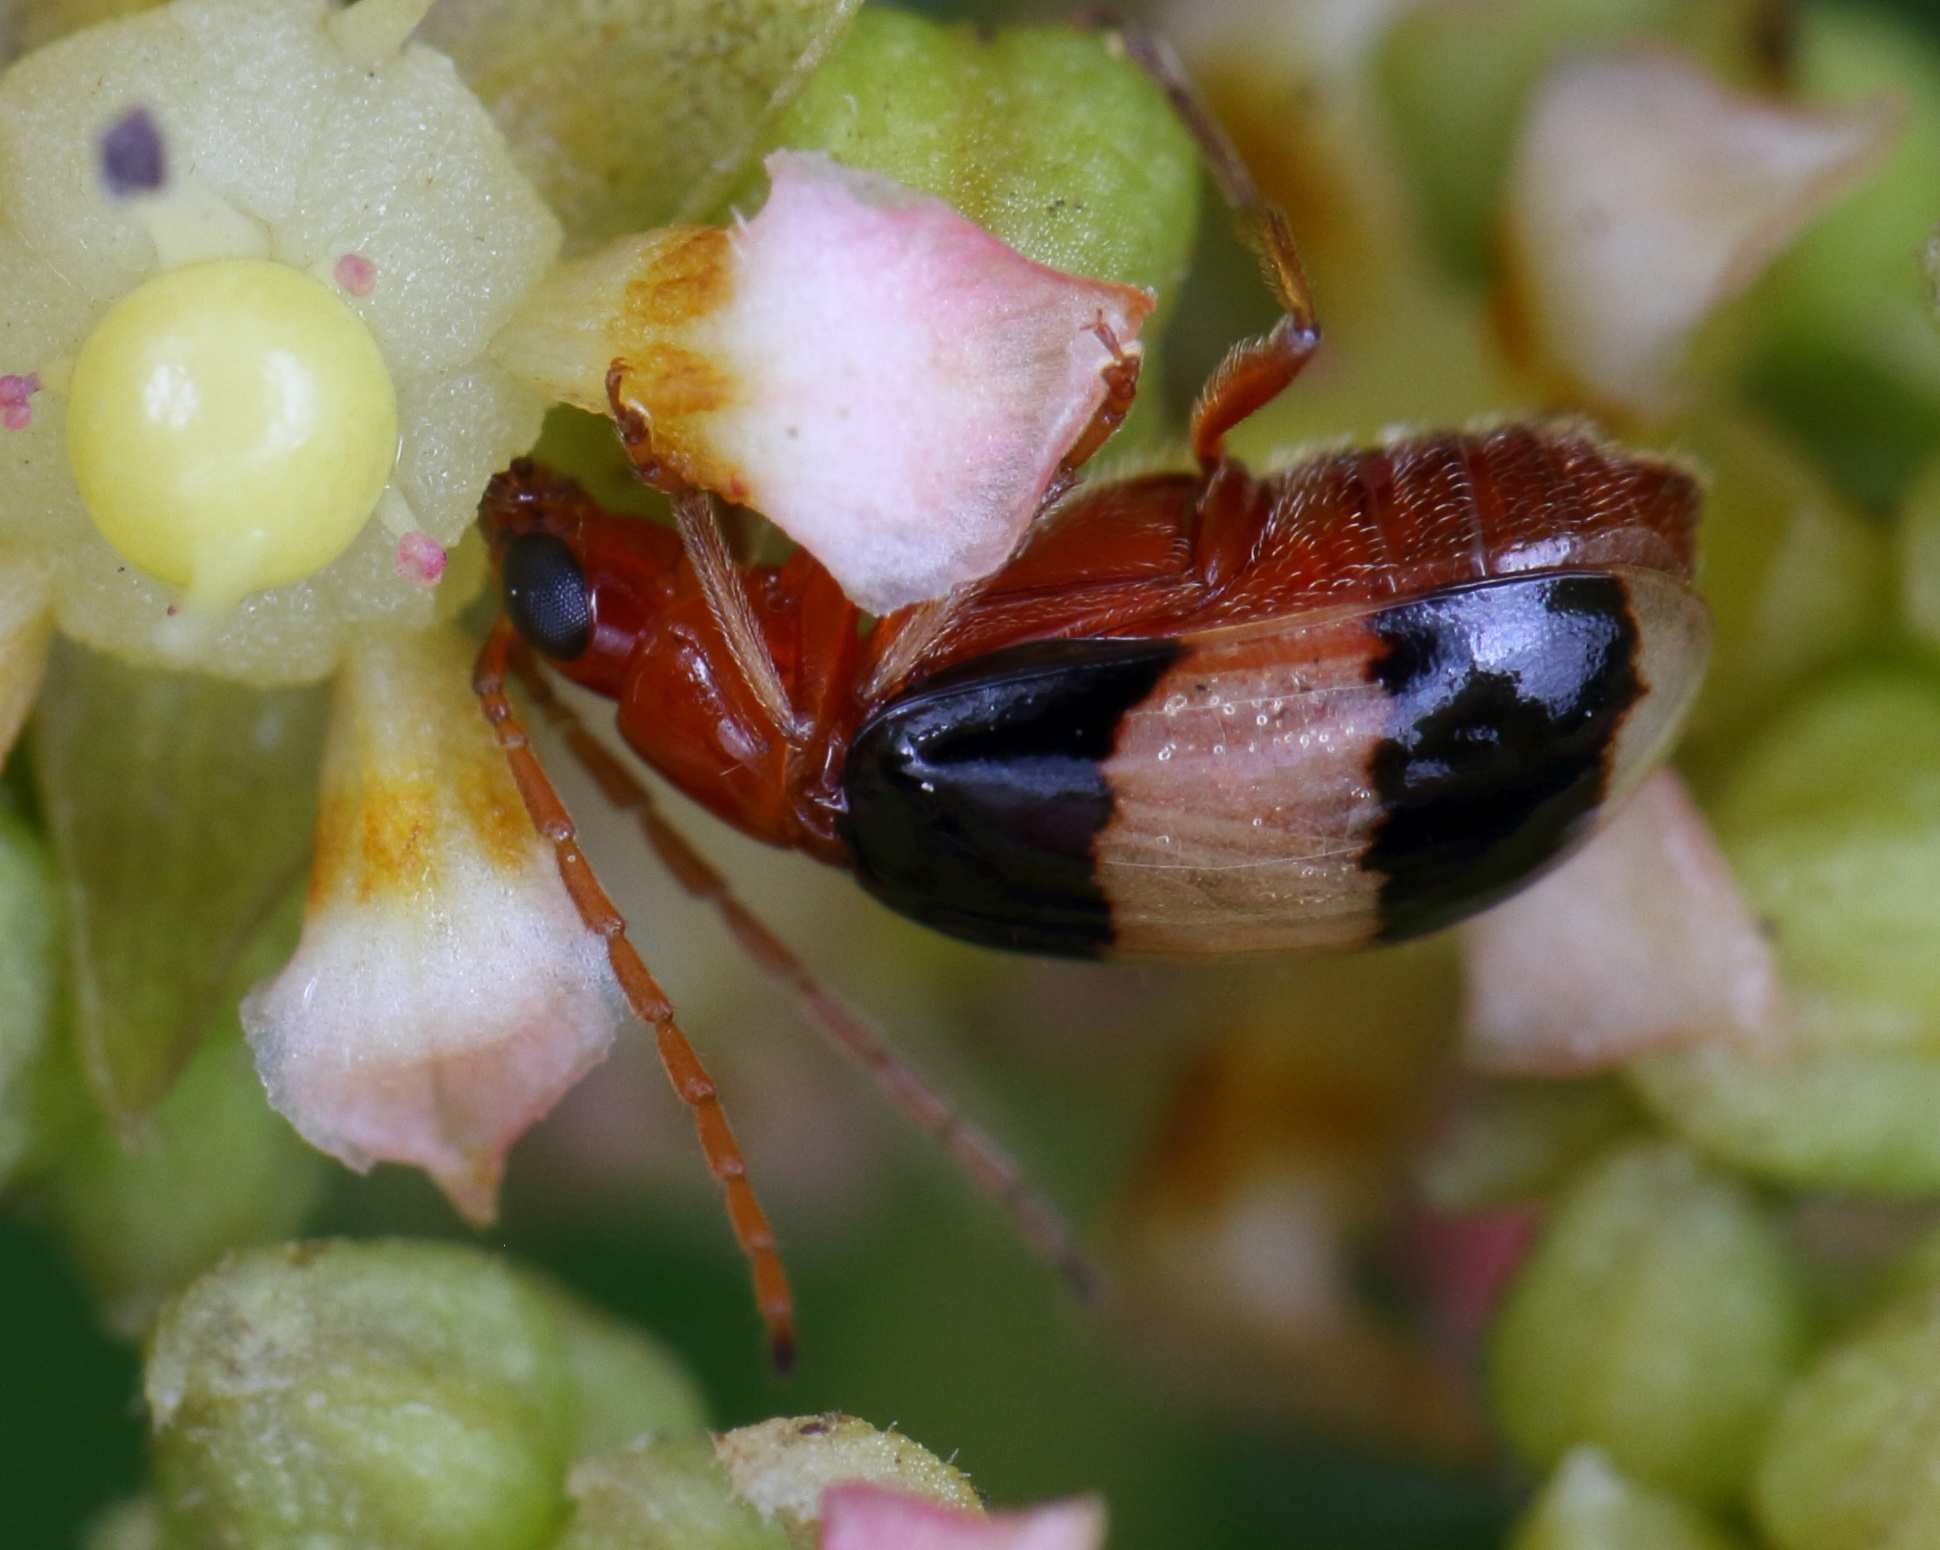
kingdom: Animalia
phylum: Arthropoda
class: Insecta
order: Coleoptera
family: Chrysomelidae
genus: Monolepta
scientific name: Monolepta
